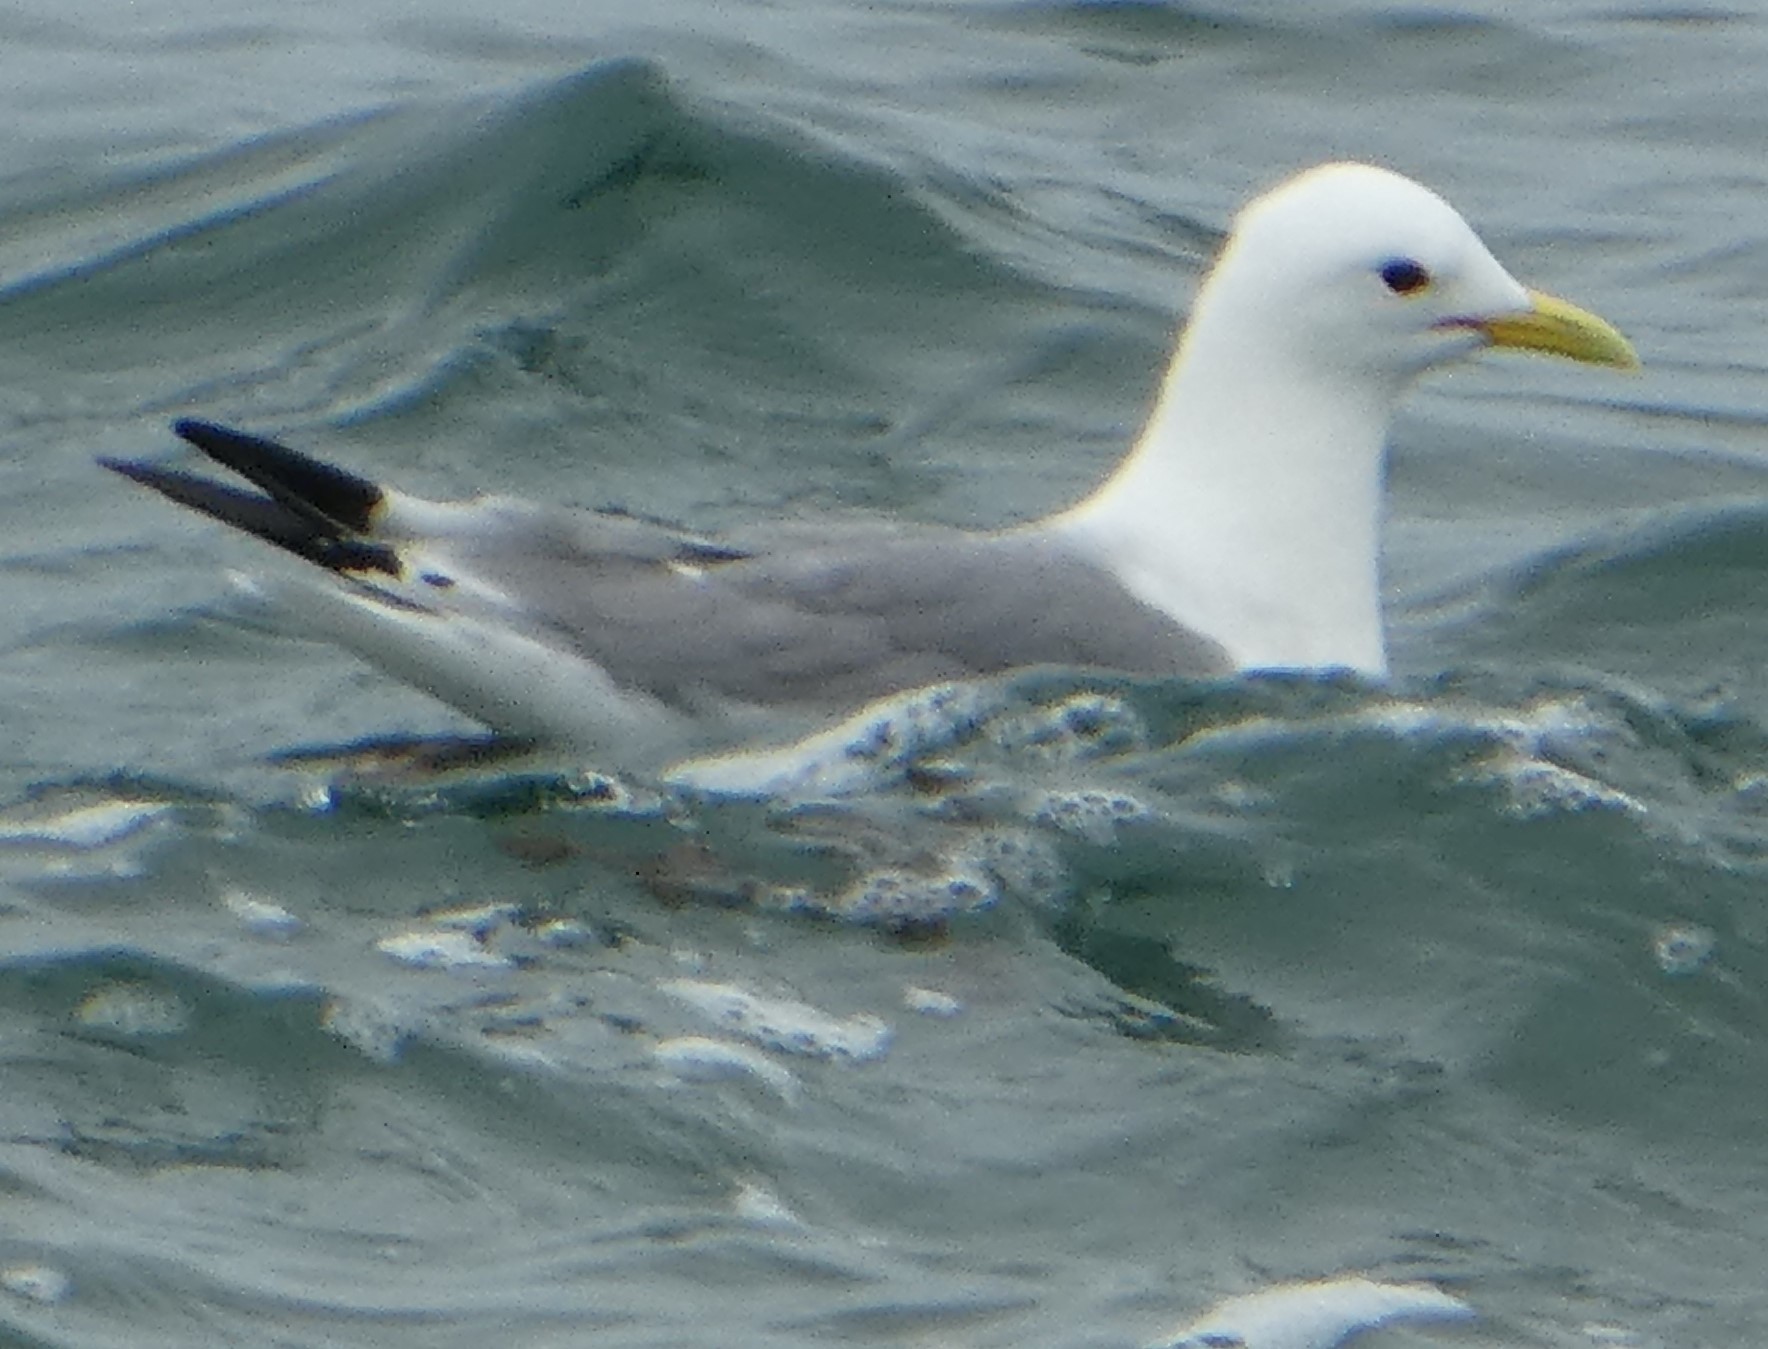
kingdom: Animalia
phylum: Chordata
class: Aves
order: Charadriiformes
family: Laridae
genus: Rissa
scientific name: Rissa tridactyla
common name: Black-legged kittiwake
